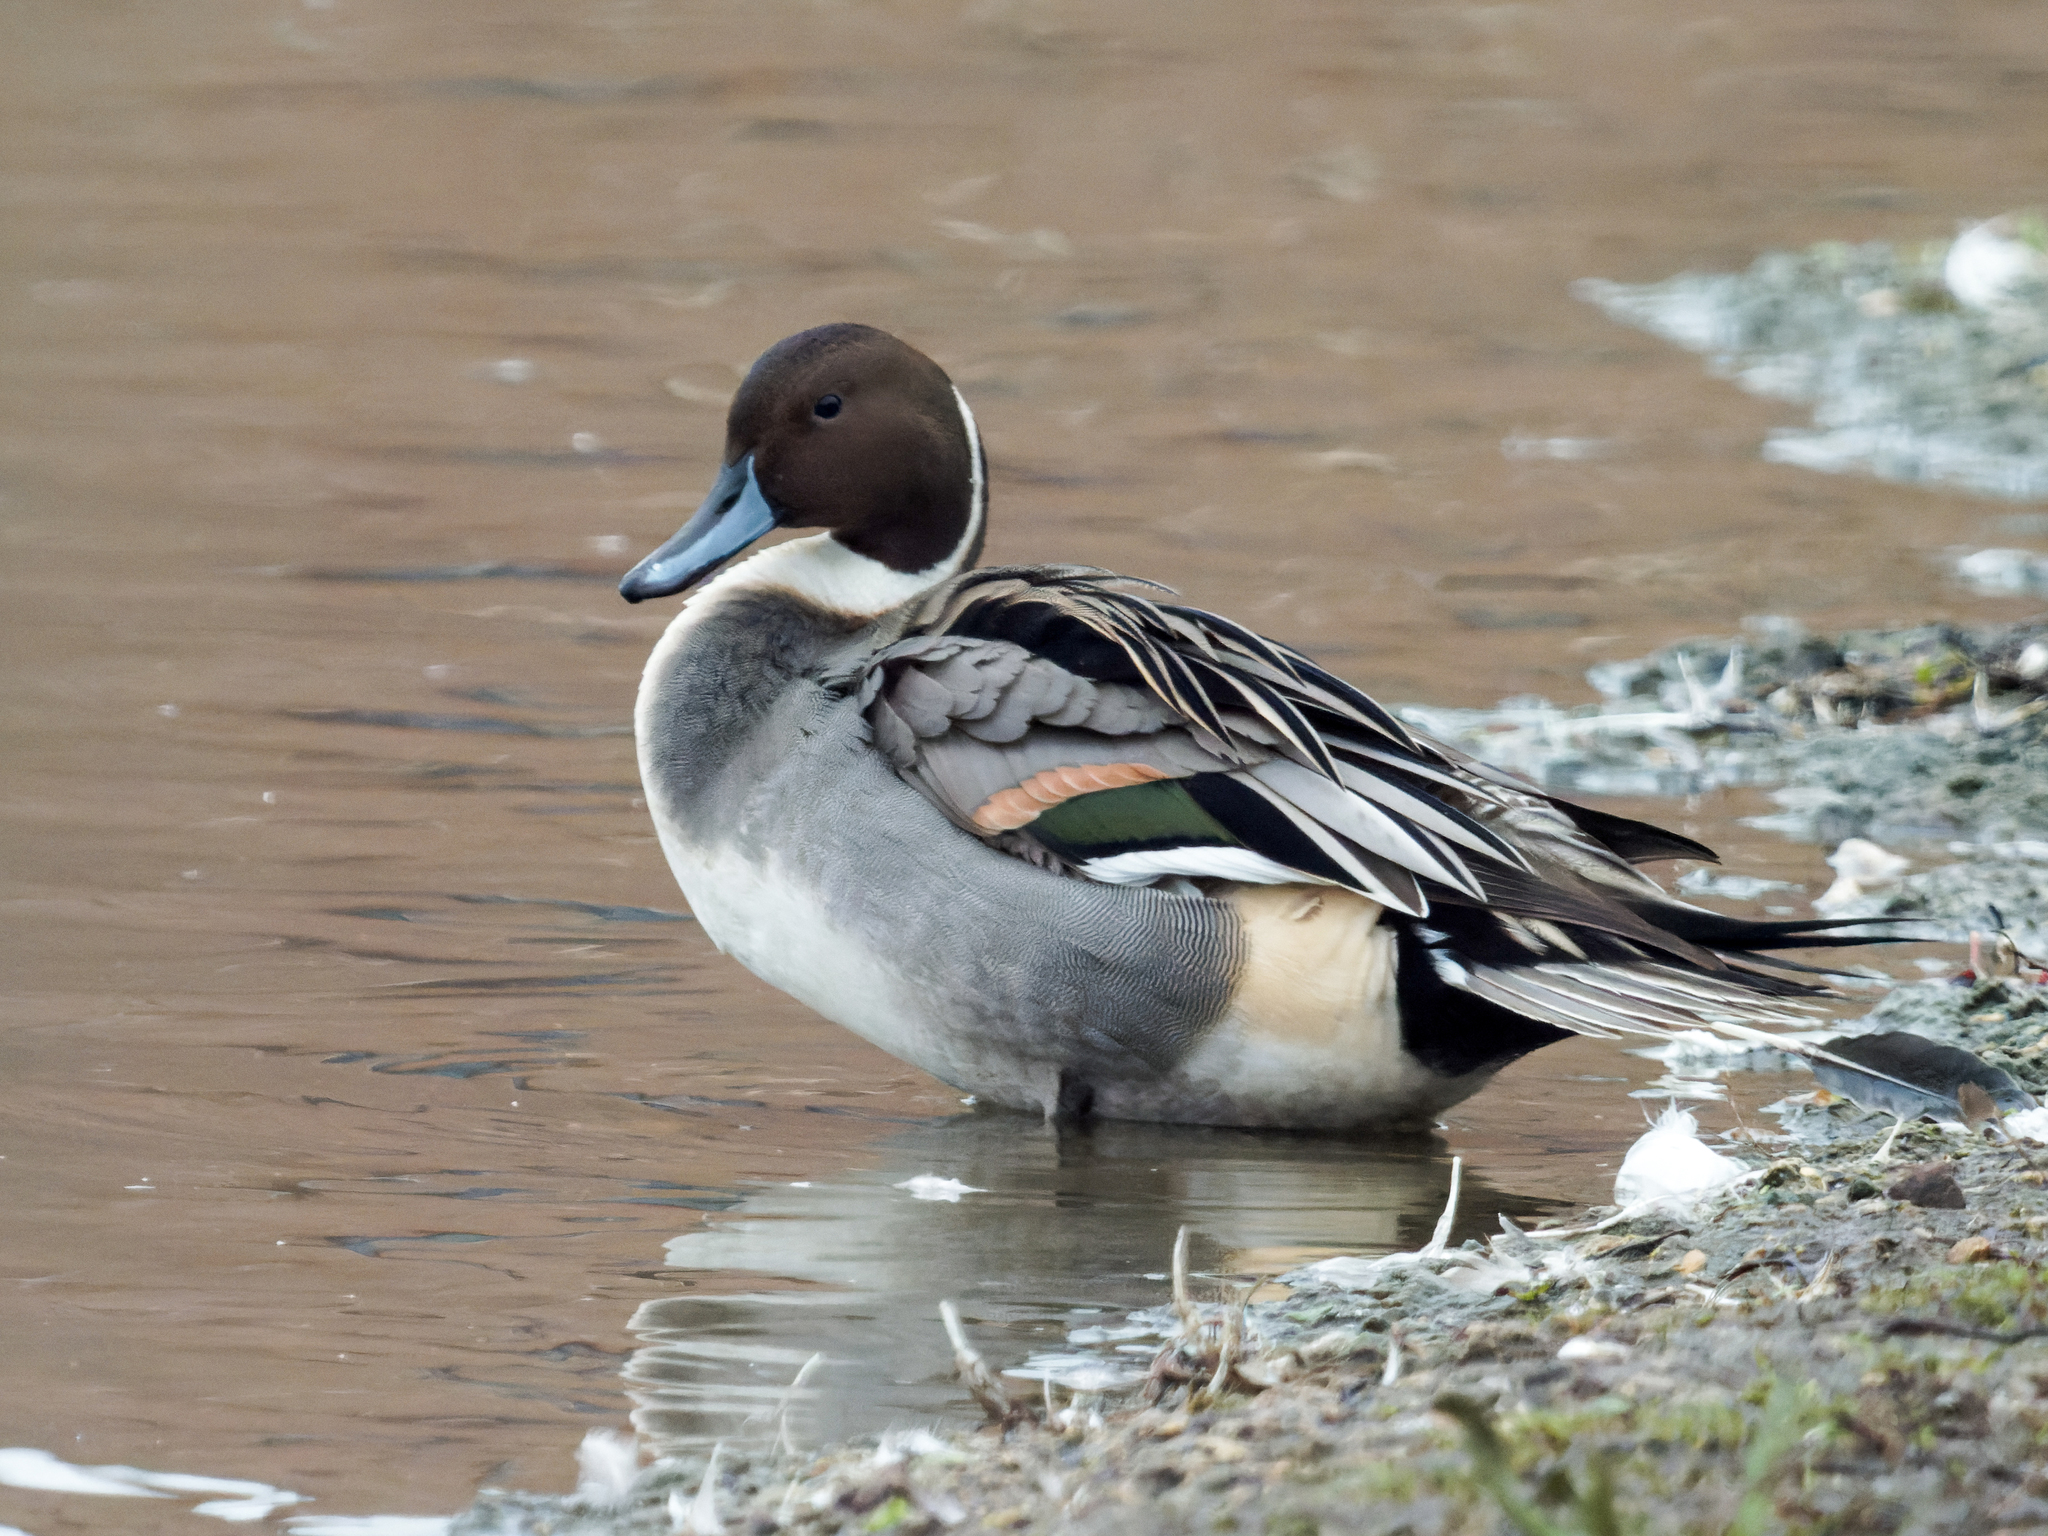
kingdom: Animalia
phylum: Chordata
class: Aves
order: Anseriformes
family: Anatidae
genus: Anas
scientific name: Anas acuta
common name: Northern pintail
